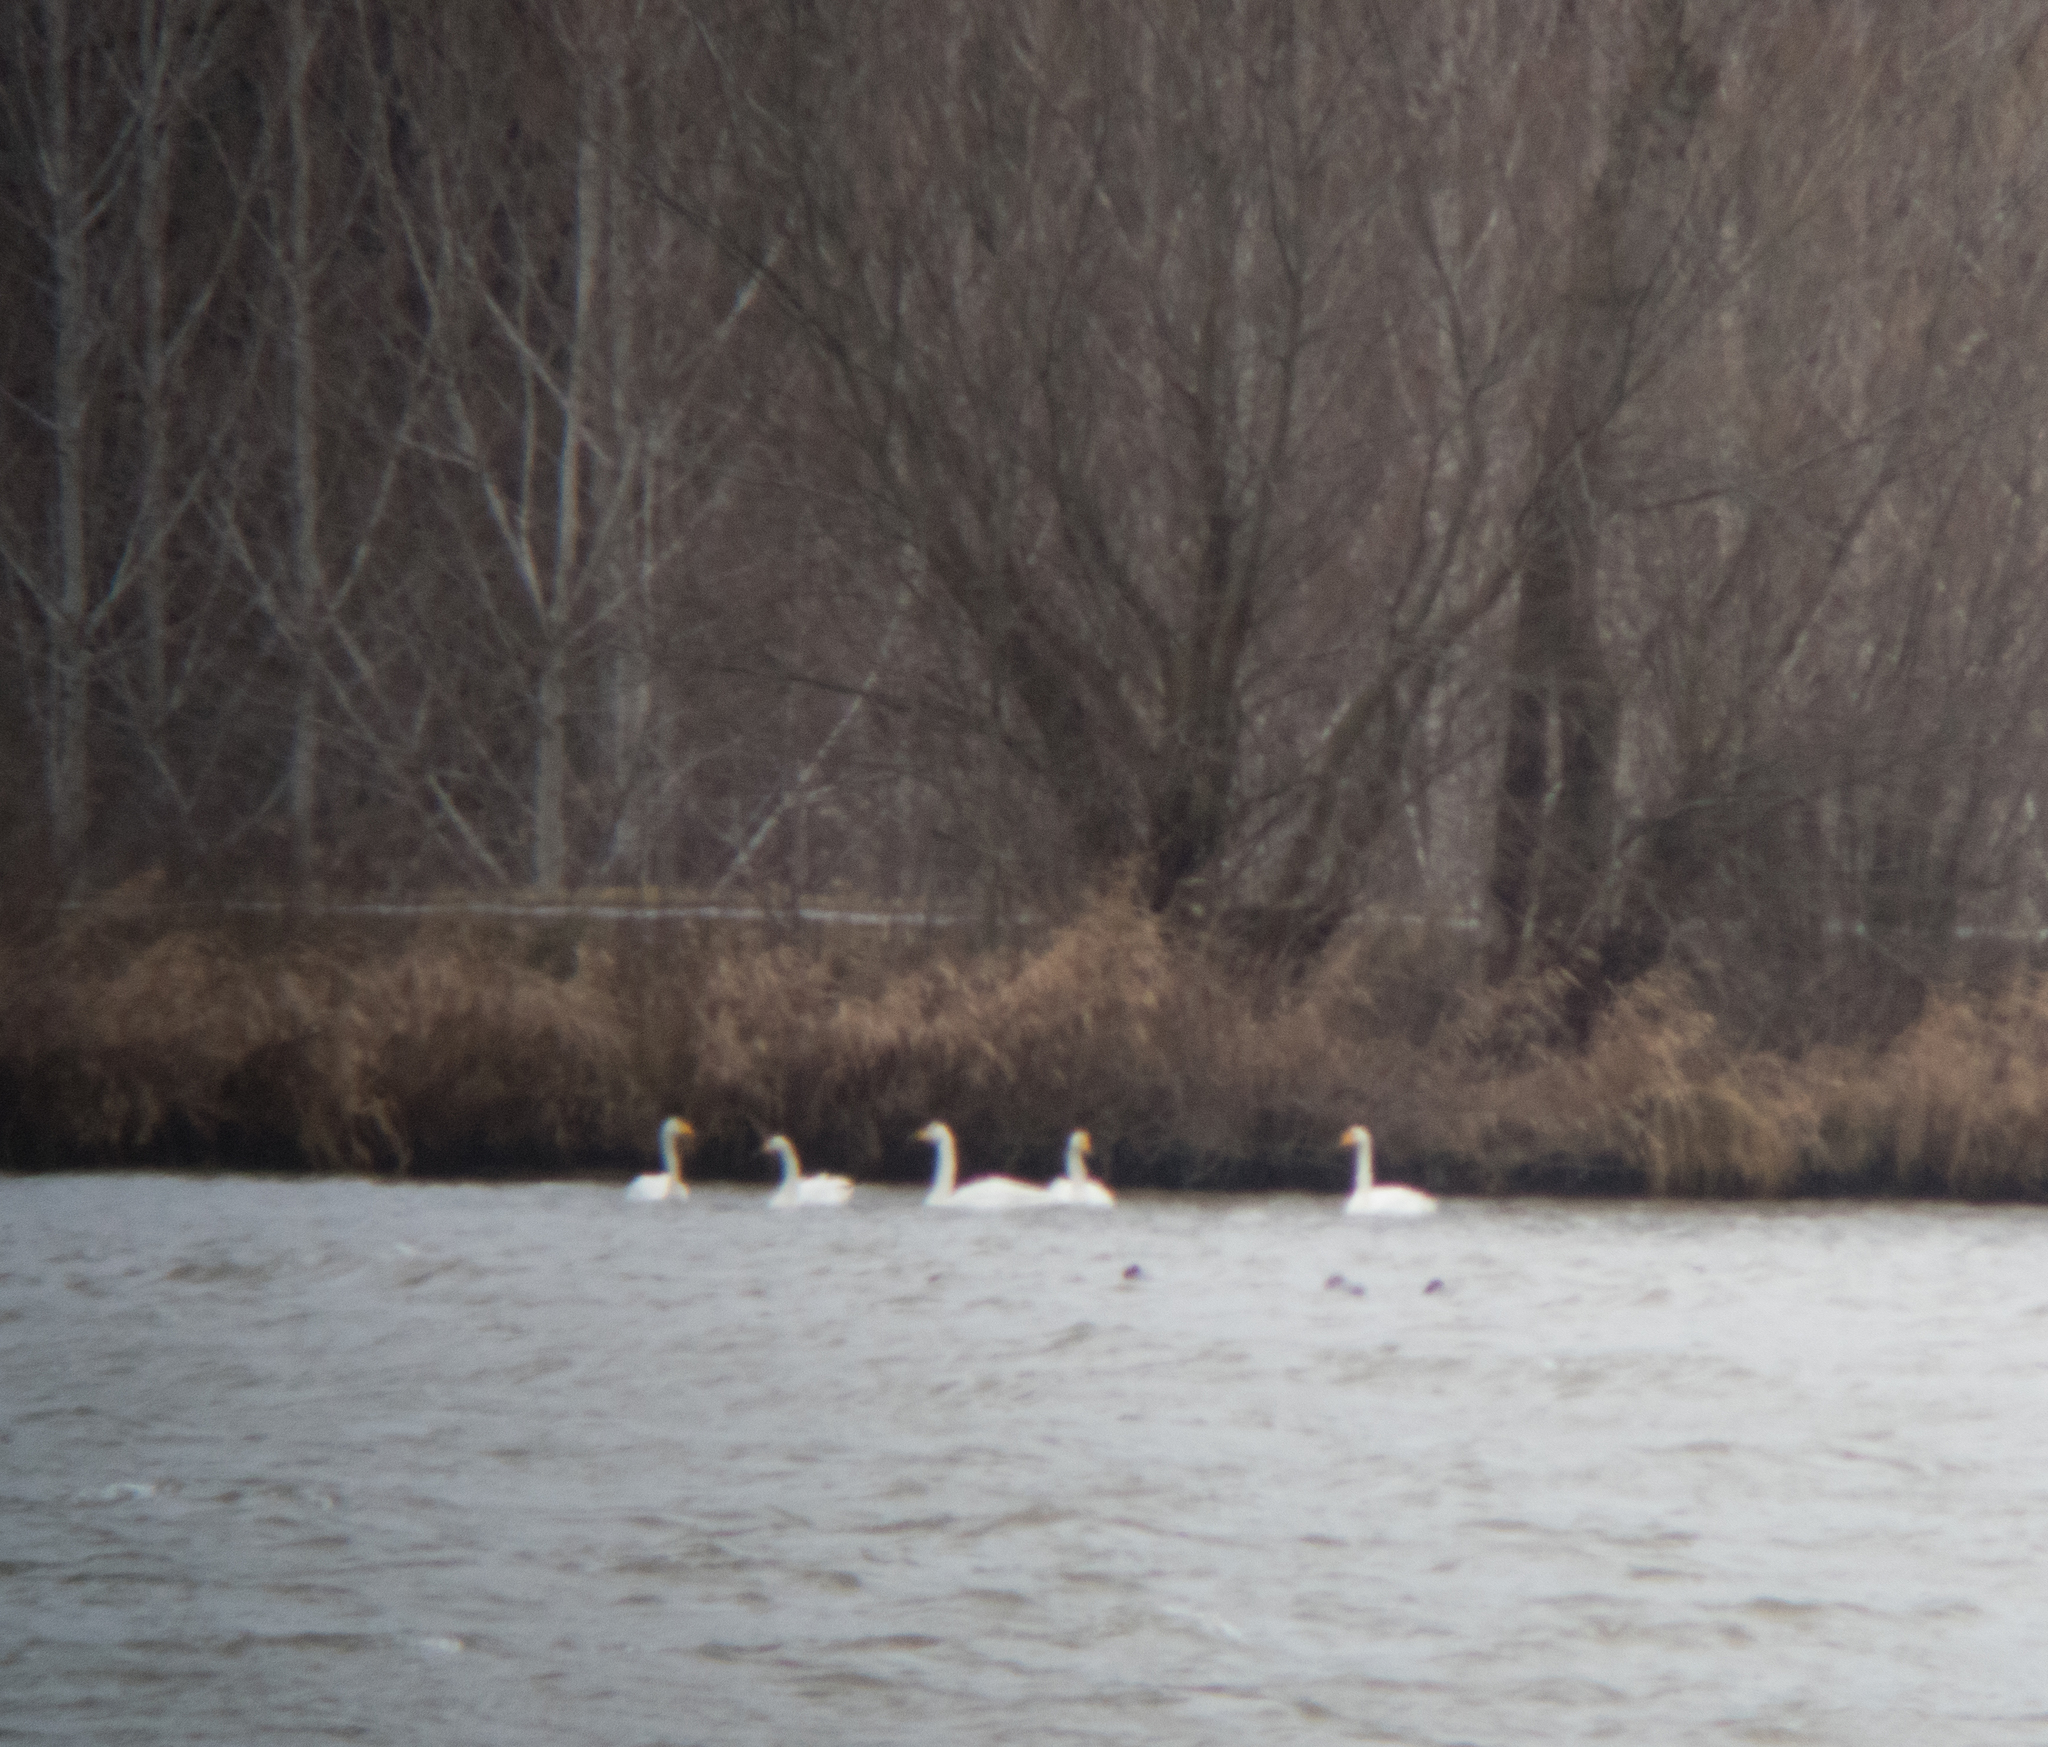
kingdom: Animalia
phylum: Chordata
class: Aves
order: Anseriformes
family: Anatidae
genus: Cygnus
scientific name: Cygnus cygnus
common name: Whooper swan
